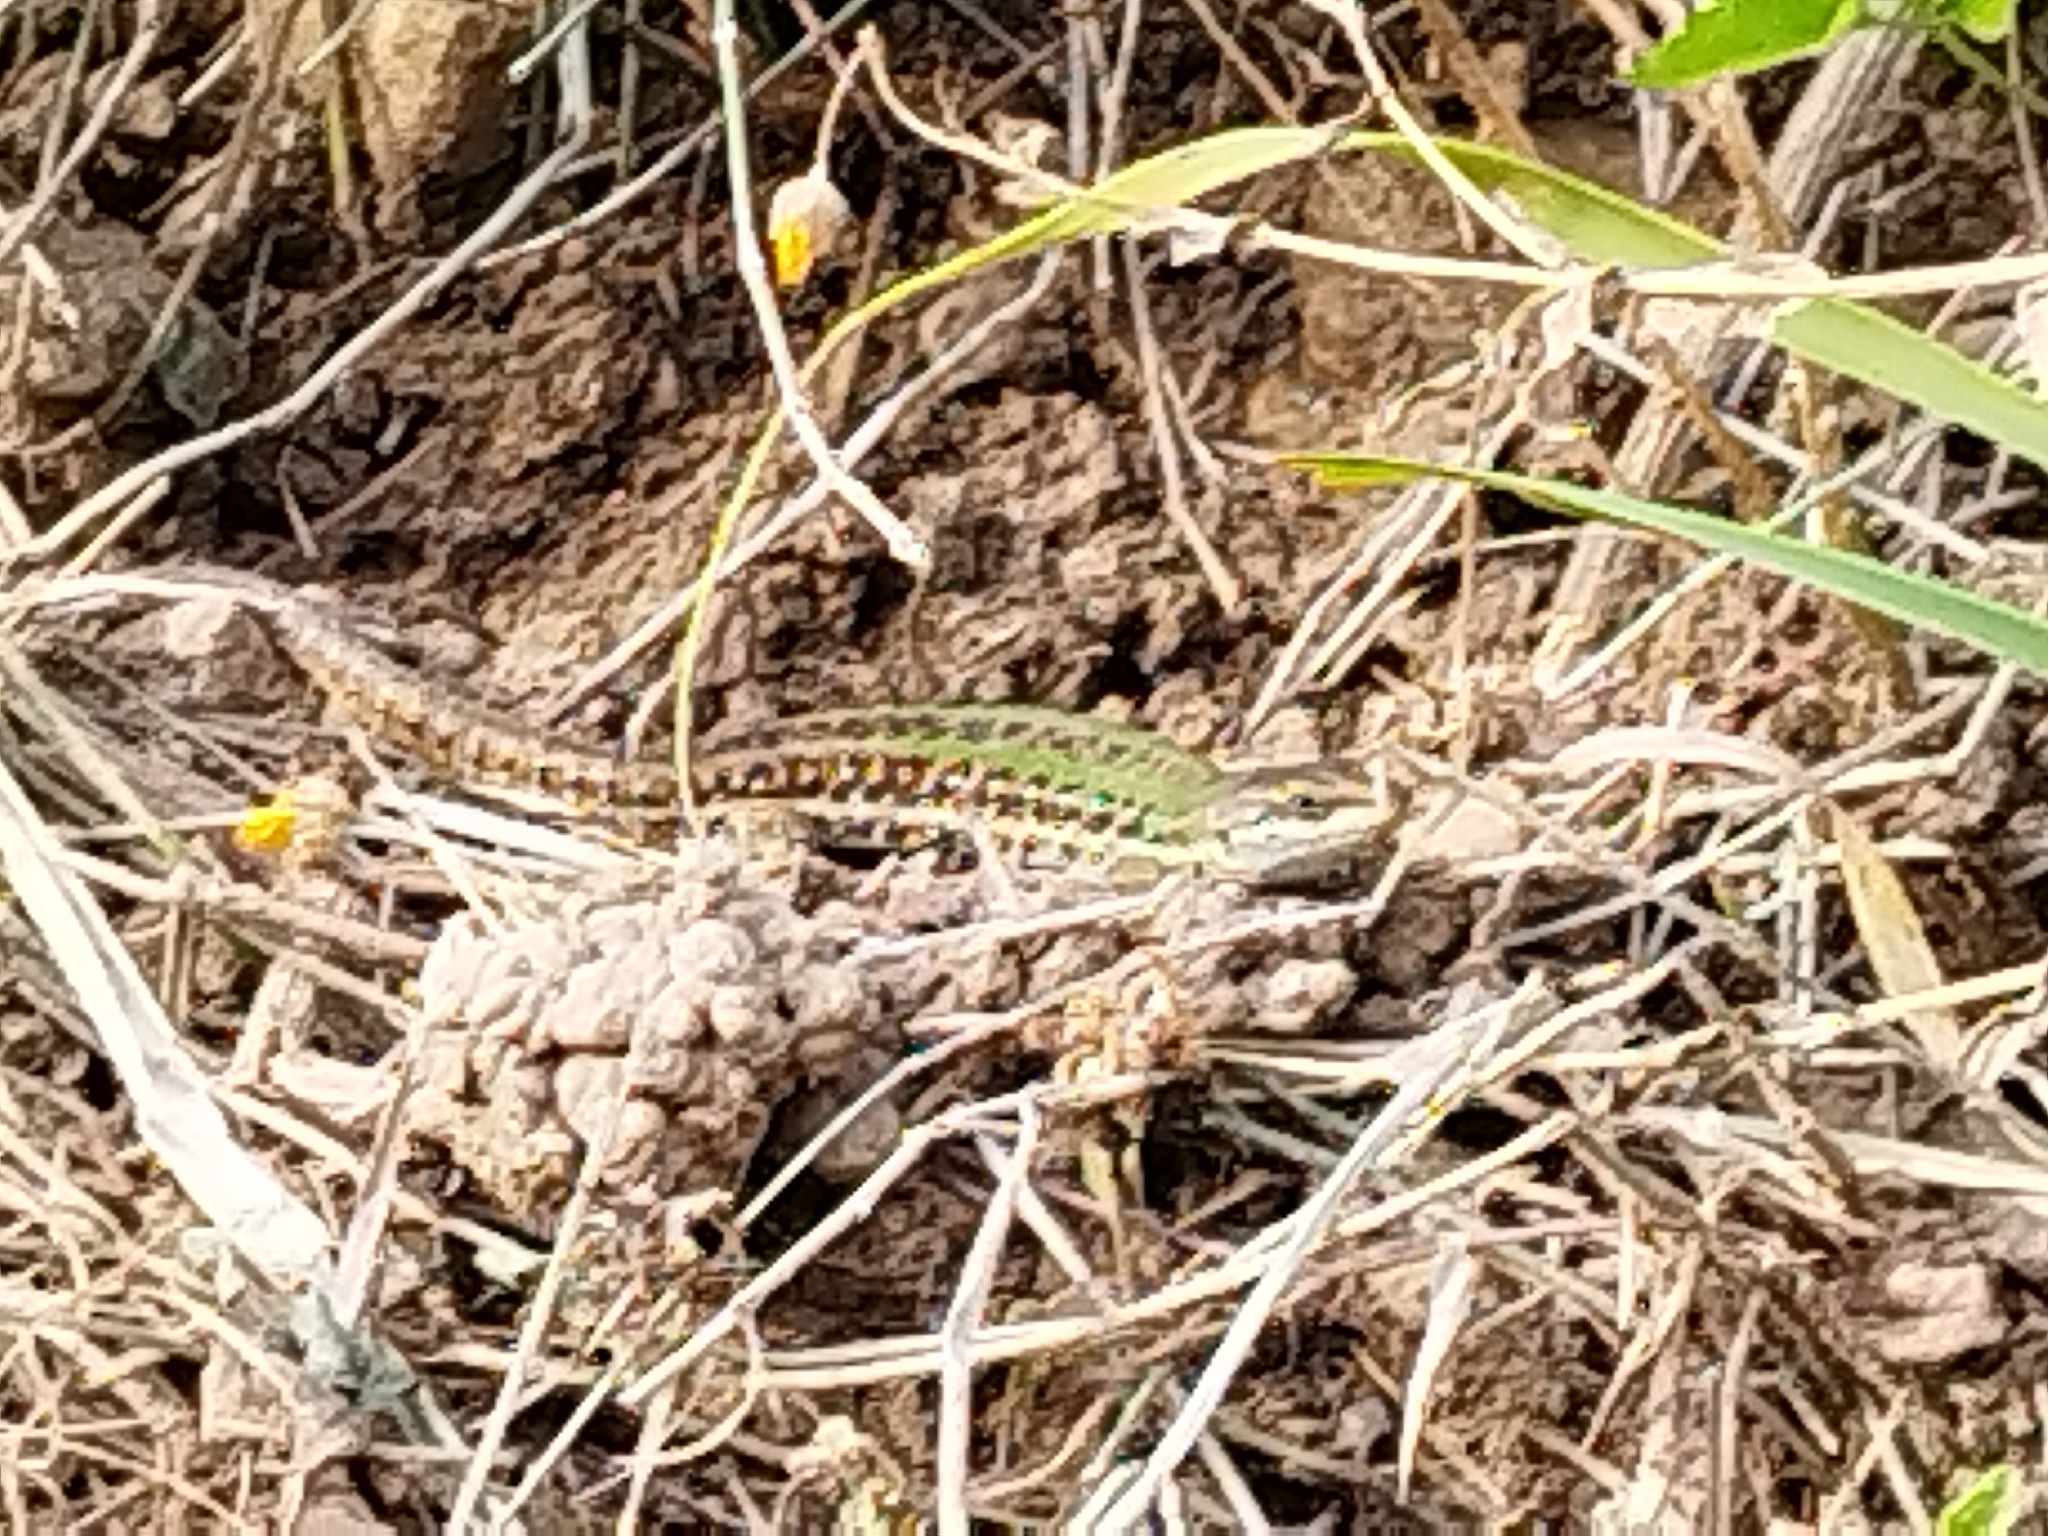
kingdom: Animalia
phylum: Chordata
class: Squamata
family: Lacertidae
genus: Podarcis
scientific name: Podarcis siculus
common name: Italian wall lizard
